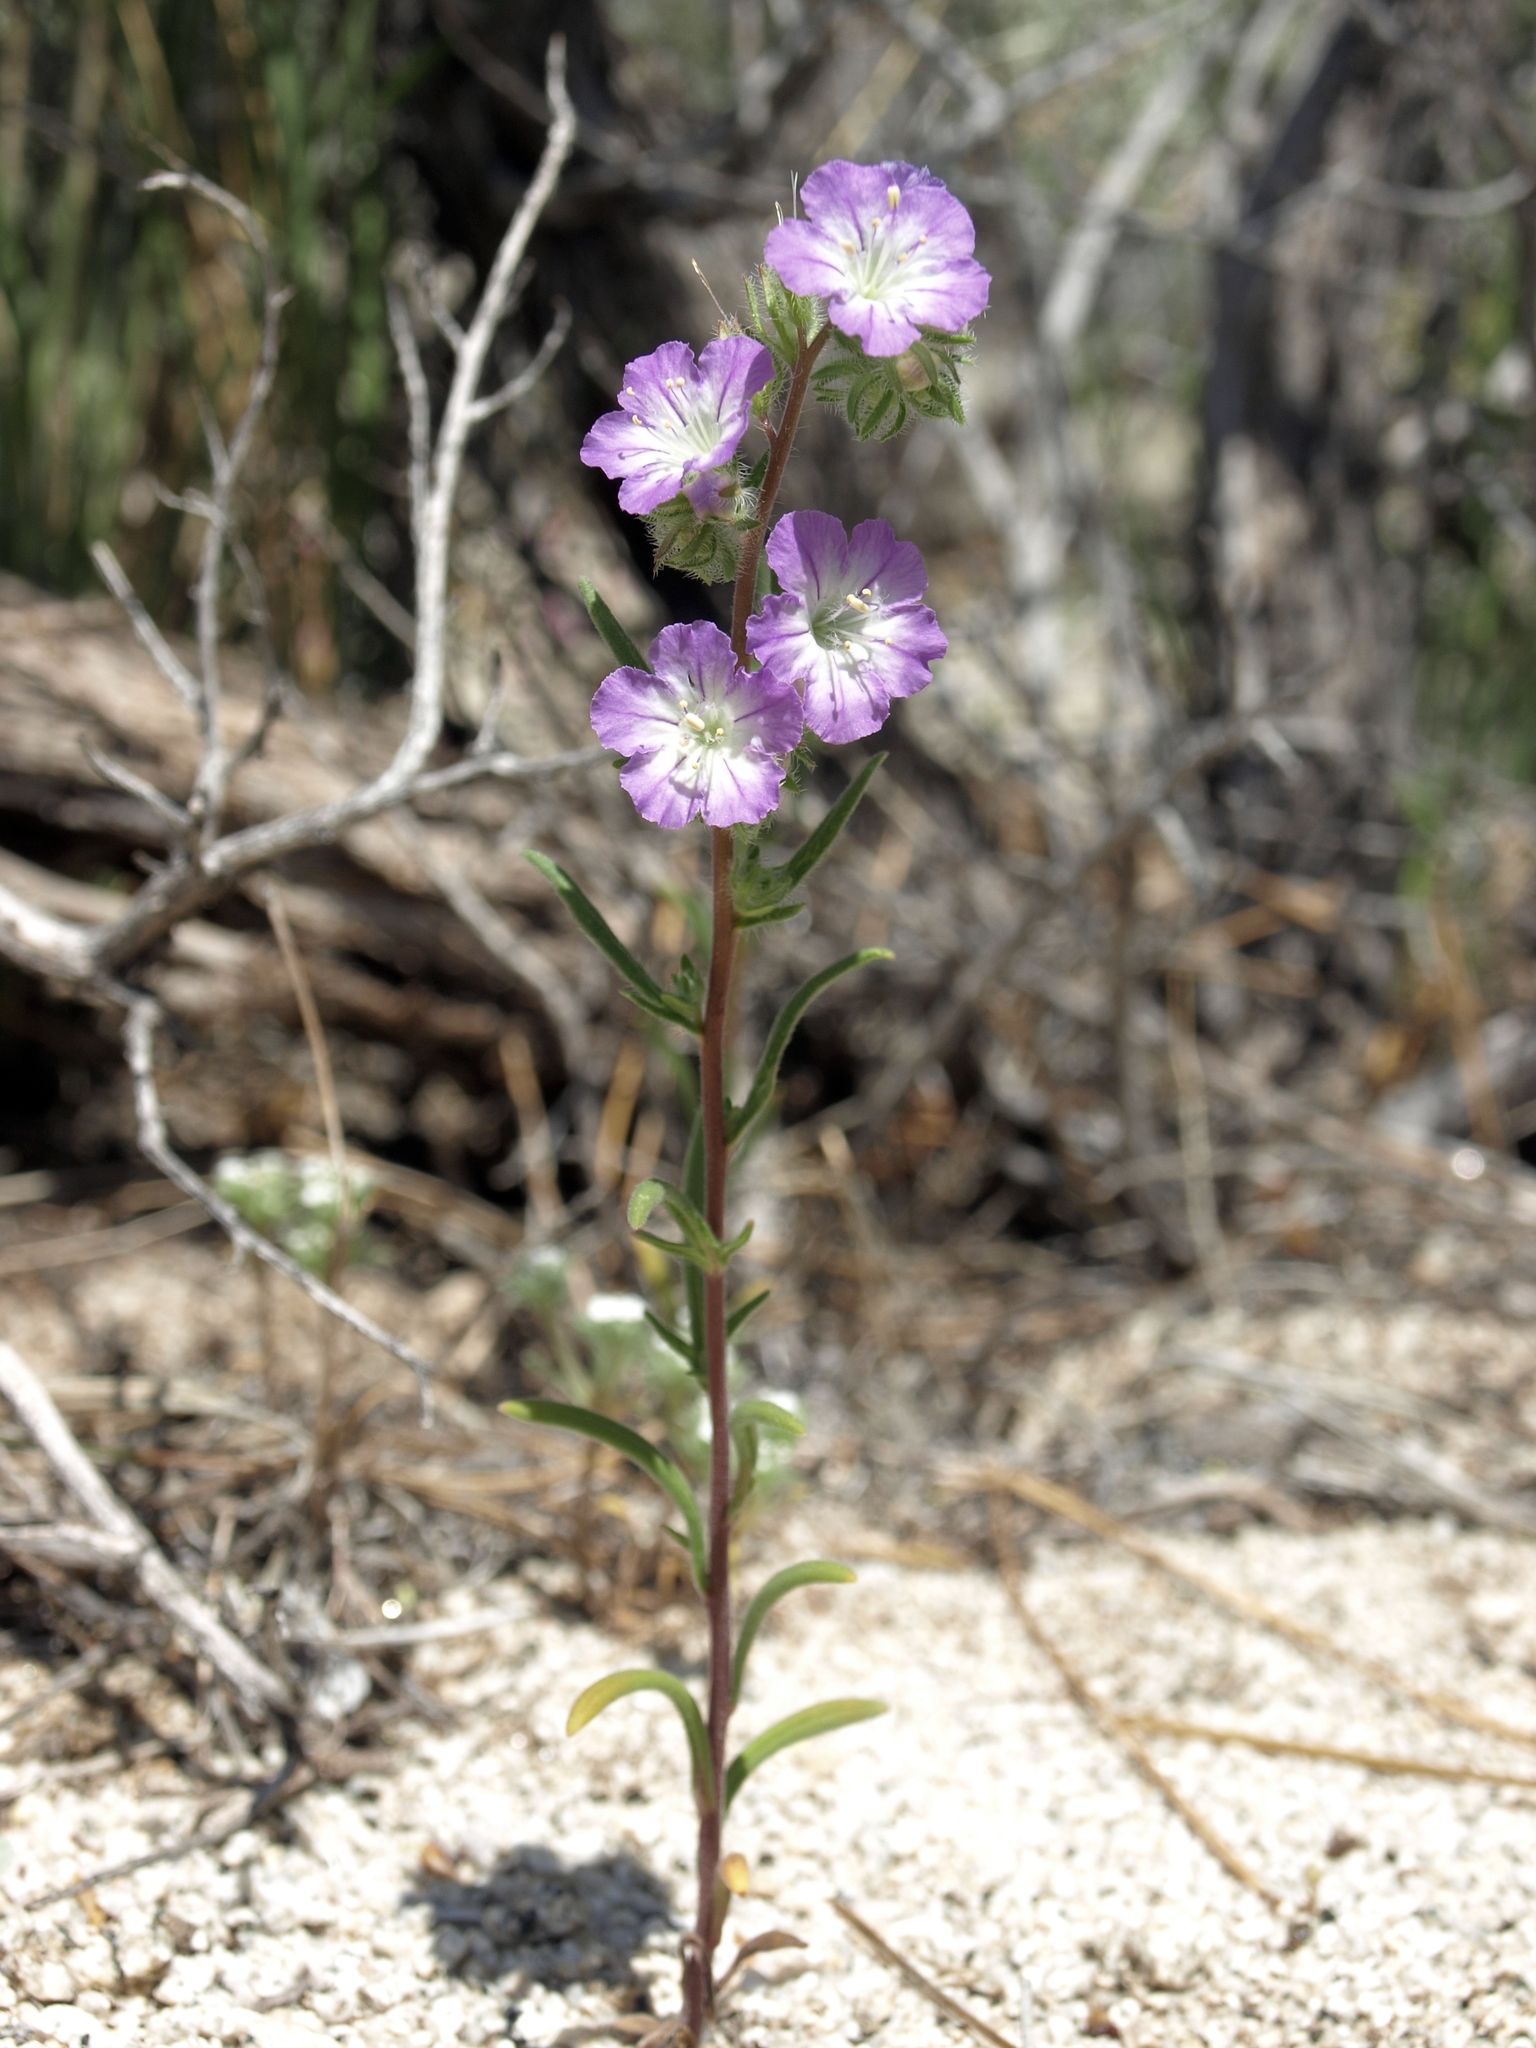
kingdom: Plantae
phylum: Tracheophyta
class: Magnoliopsida
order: Boraginales
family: Hydrophyllaceae
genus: Phacelia
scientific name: Phacelia linearis
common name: Linear-leaved phacelia
